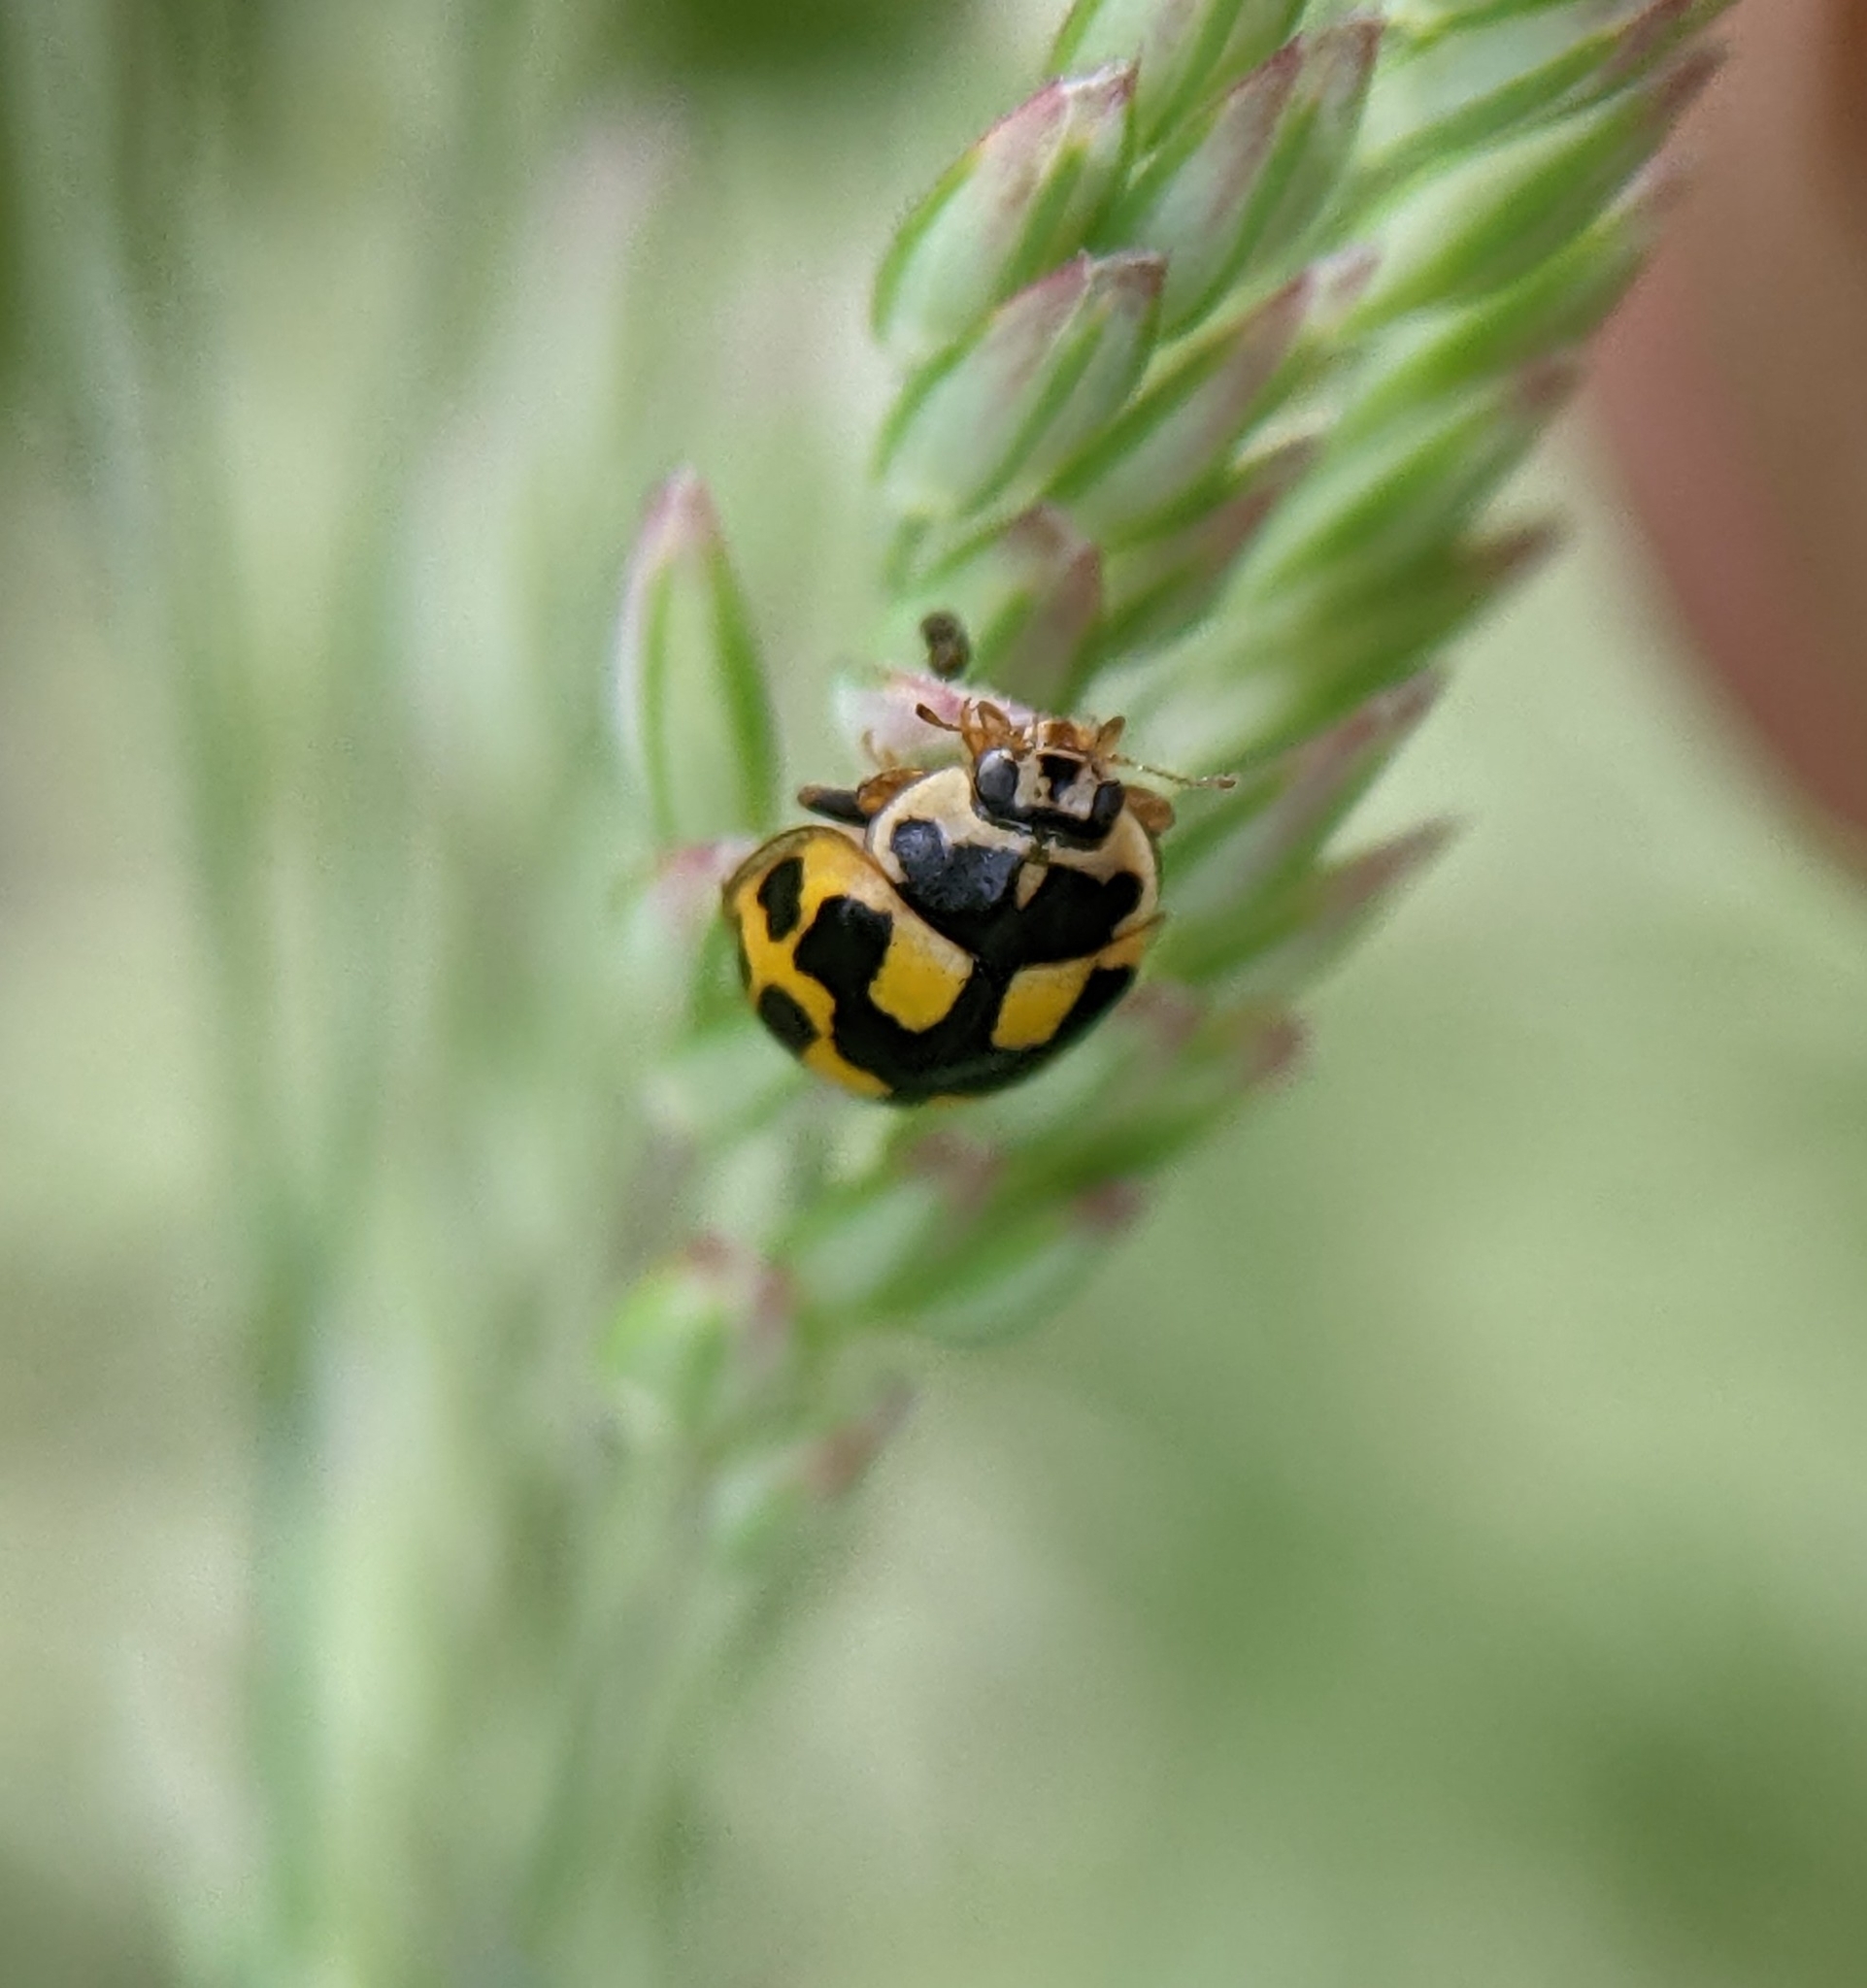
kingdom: Animalia
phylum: Arthropoda
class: Insecta
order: Coleoptera
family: Coccinellidae
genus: Propylaea
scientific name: Propylaea quatuordecimpunctata
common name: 14-spotted ladybird beetle
